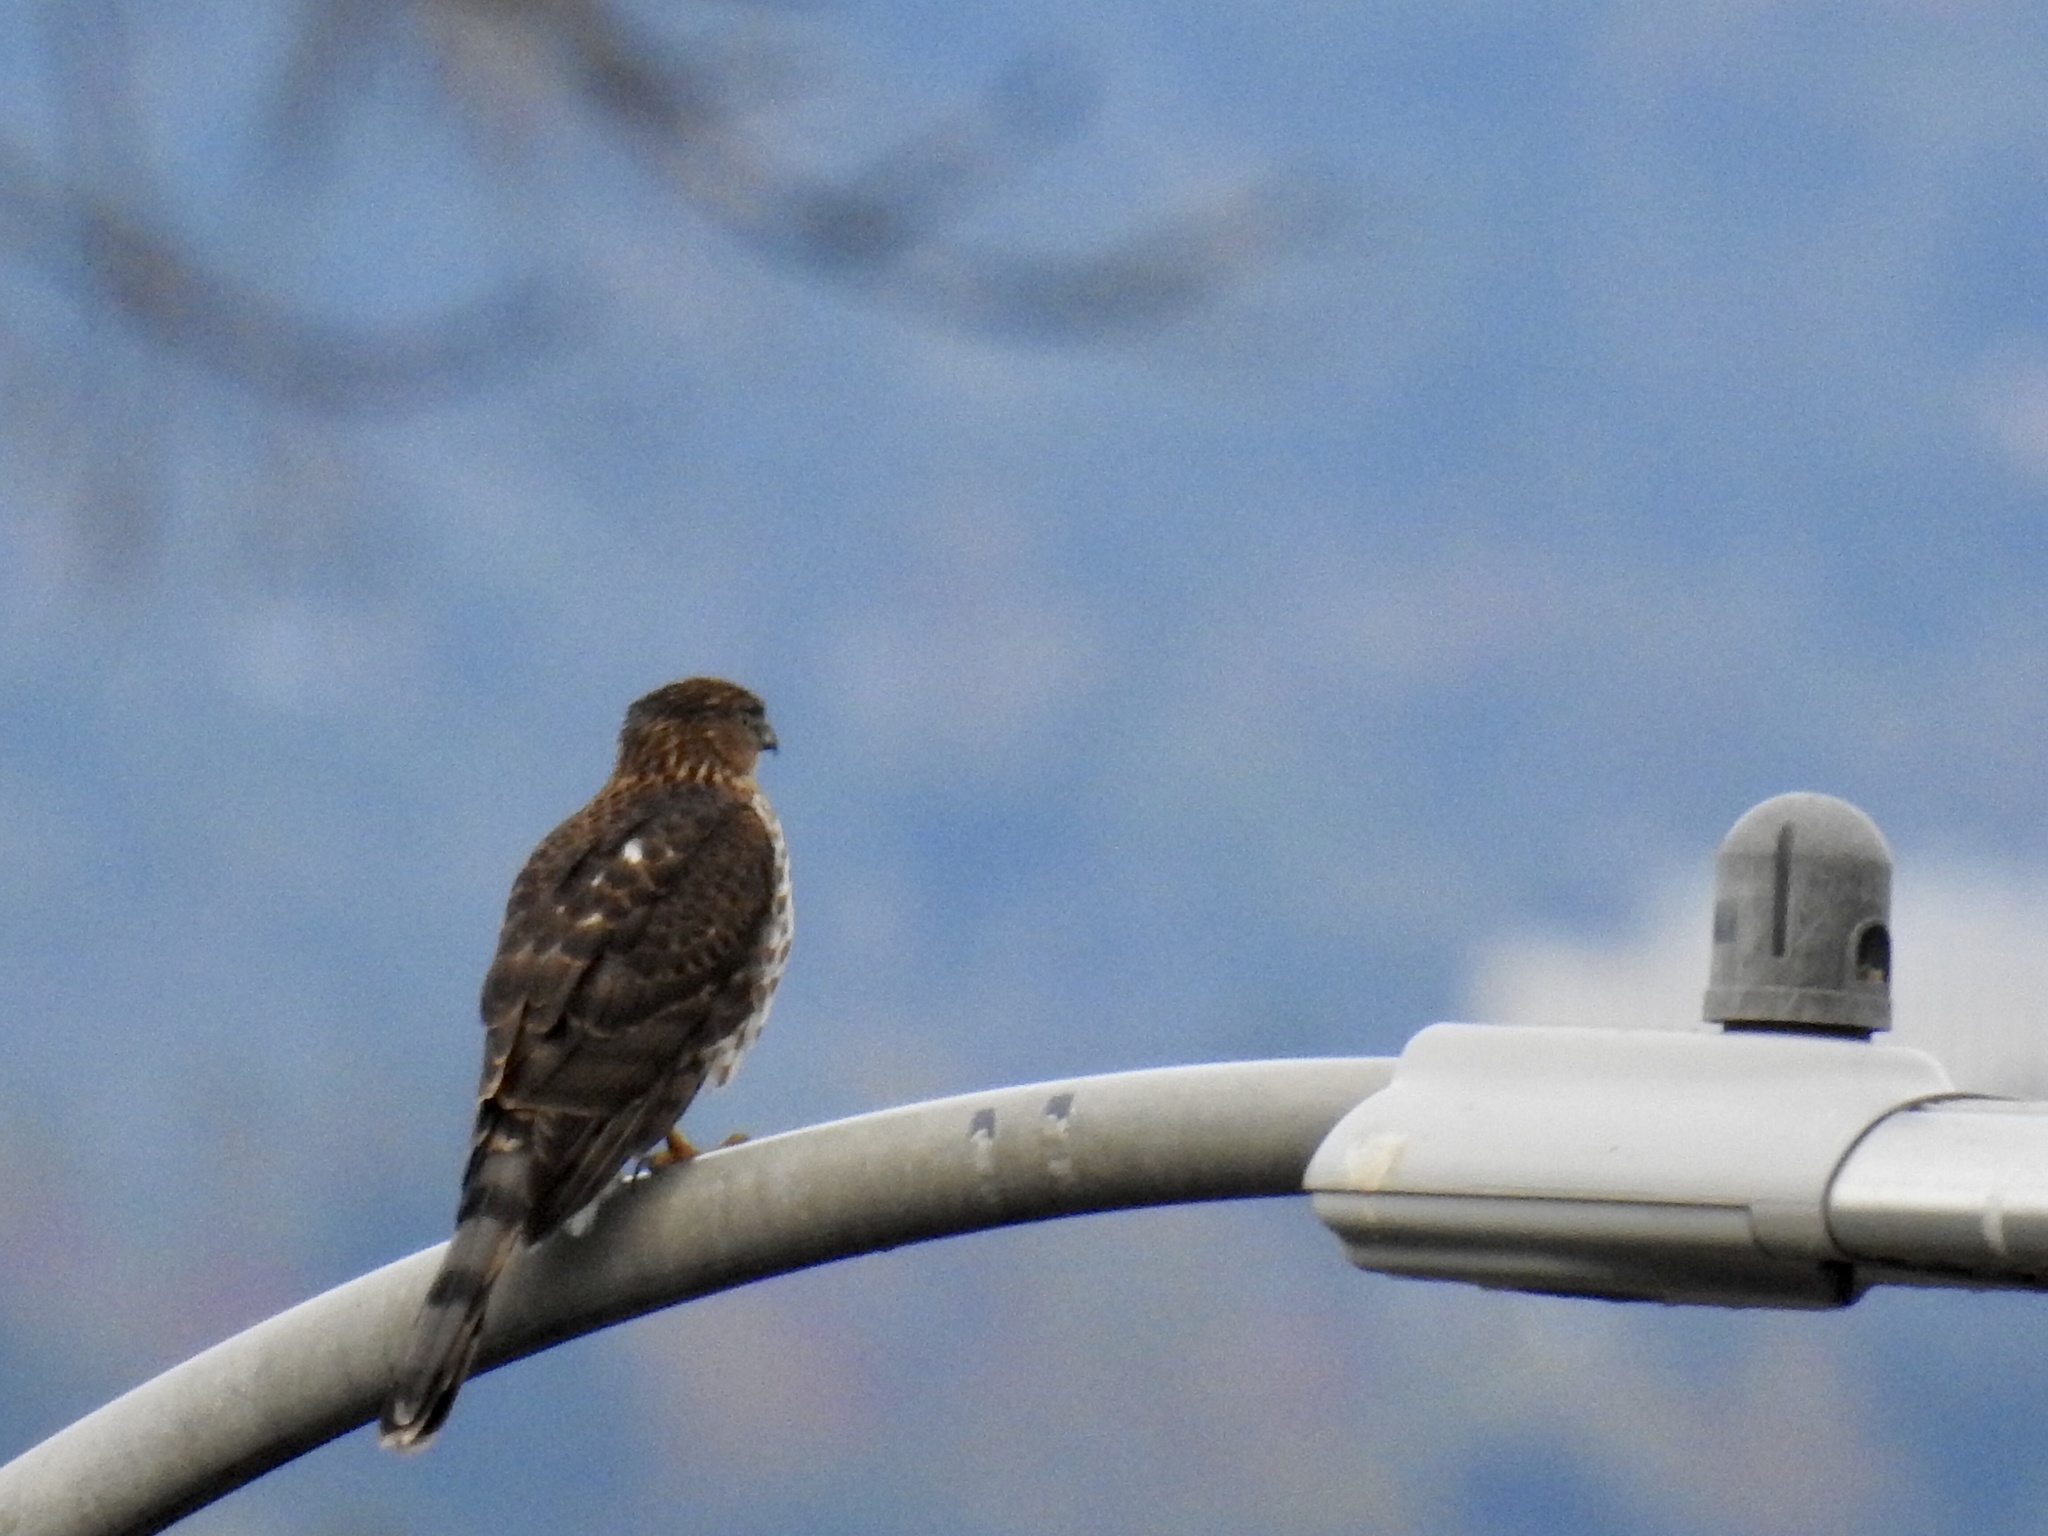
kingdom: Animalia
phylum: Chordata
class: Aves
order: Accipitriformes
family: Accipitridae
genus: Accipiter
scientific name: Accipiter cooperii
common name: Cooper's hawk
